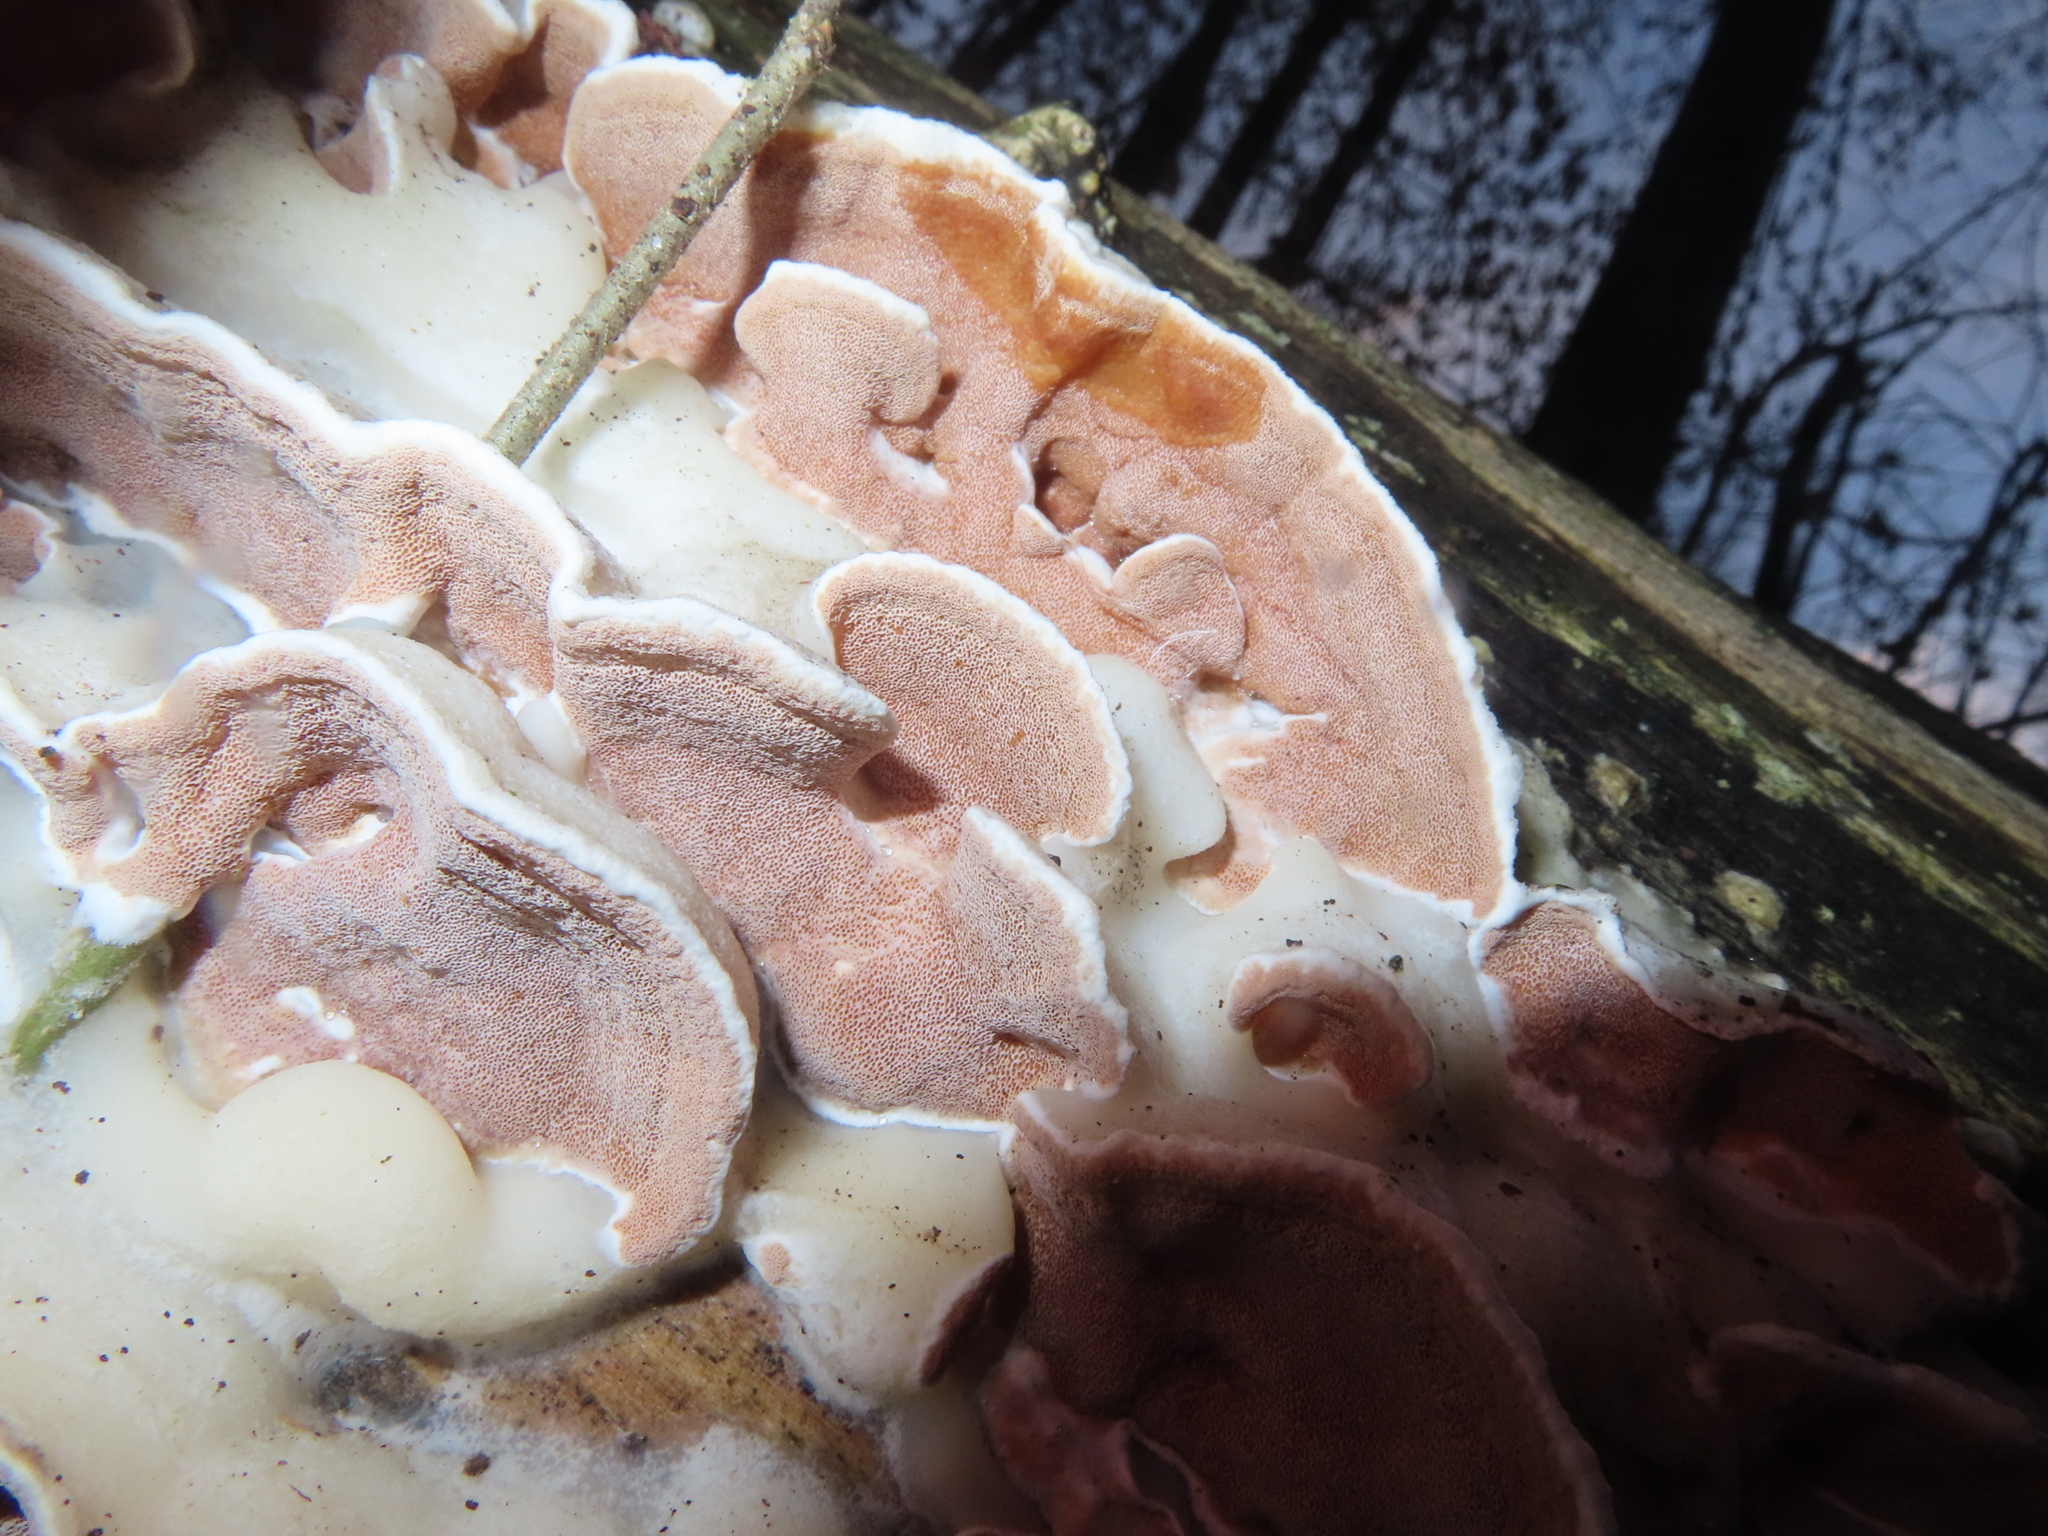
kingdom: Fungi
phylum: Basidiomycota
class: Agaricomycetes
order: Polyporales
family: Irpicaceae
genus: Vitreoporus
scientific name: Vitreoporus dichrous
